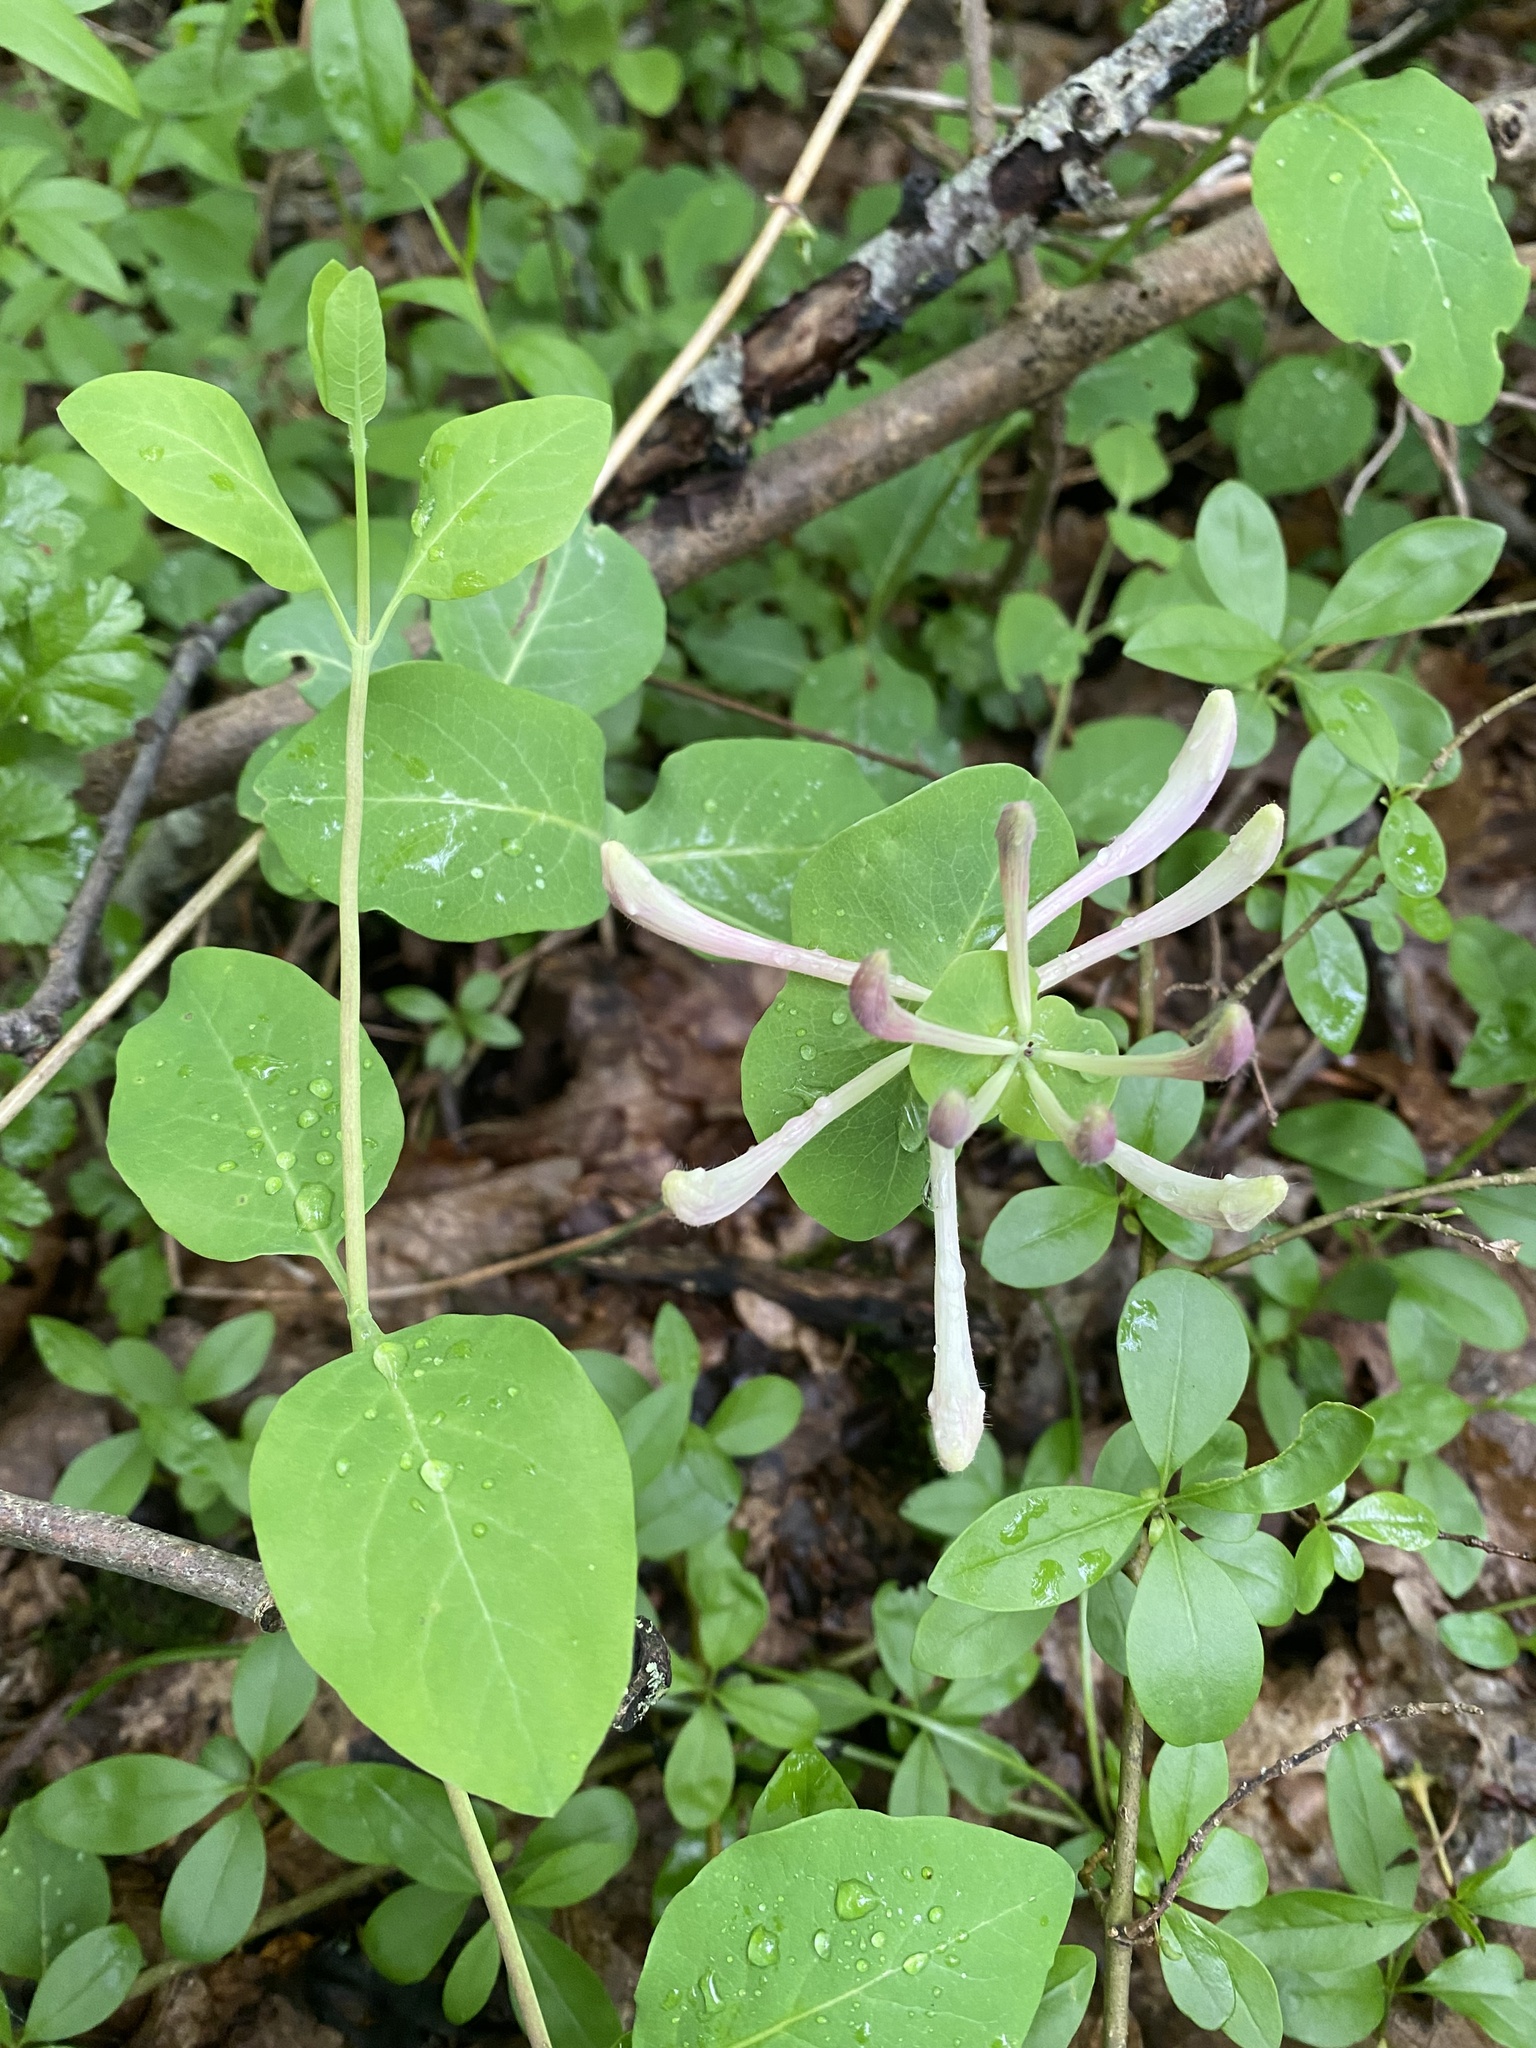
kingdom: Plantae
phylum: Tracheophyta
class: Magnoliopsida
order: Dipsacales
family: Caprifoliaceae
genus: Lonicera
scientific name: Lonicera caprifolium
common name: Perfoliate honeysuckle
